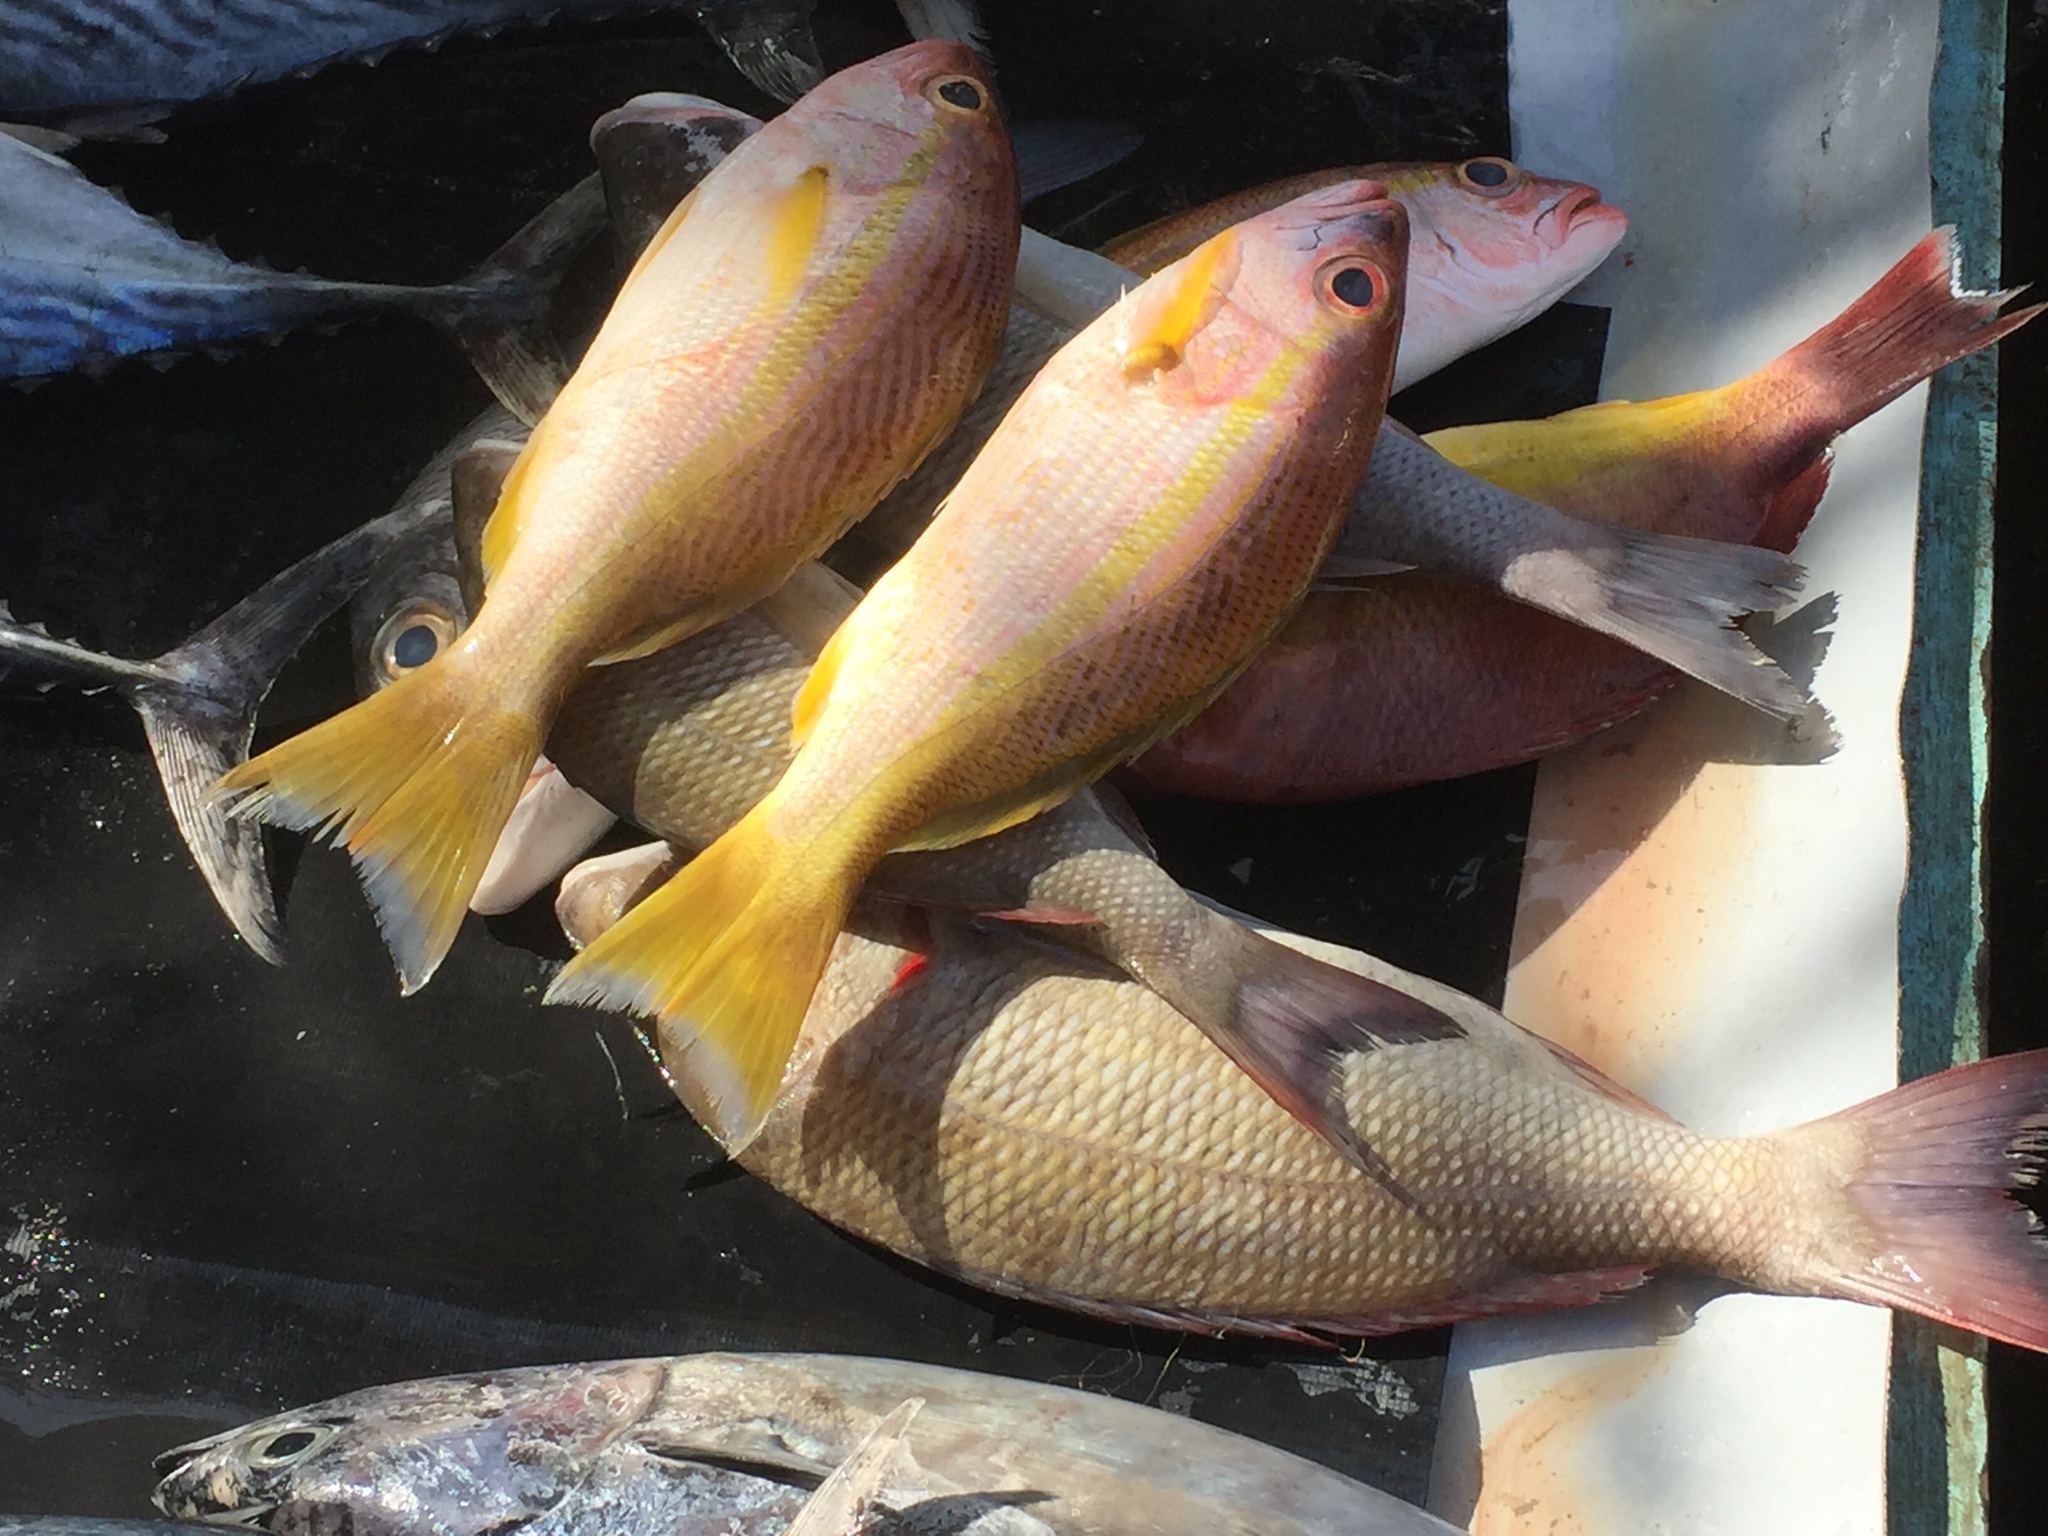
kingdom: Animalia
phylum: Chordata
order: Perciformes
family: Lutjanidae
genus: Lutjanus
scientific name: Lutjanus madras
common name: Indian snapper
